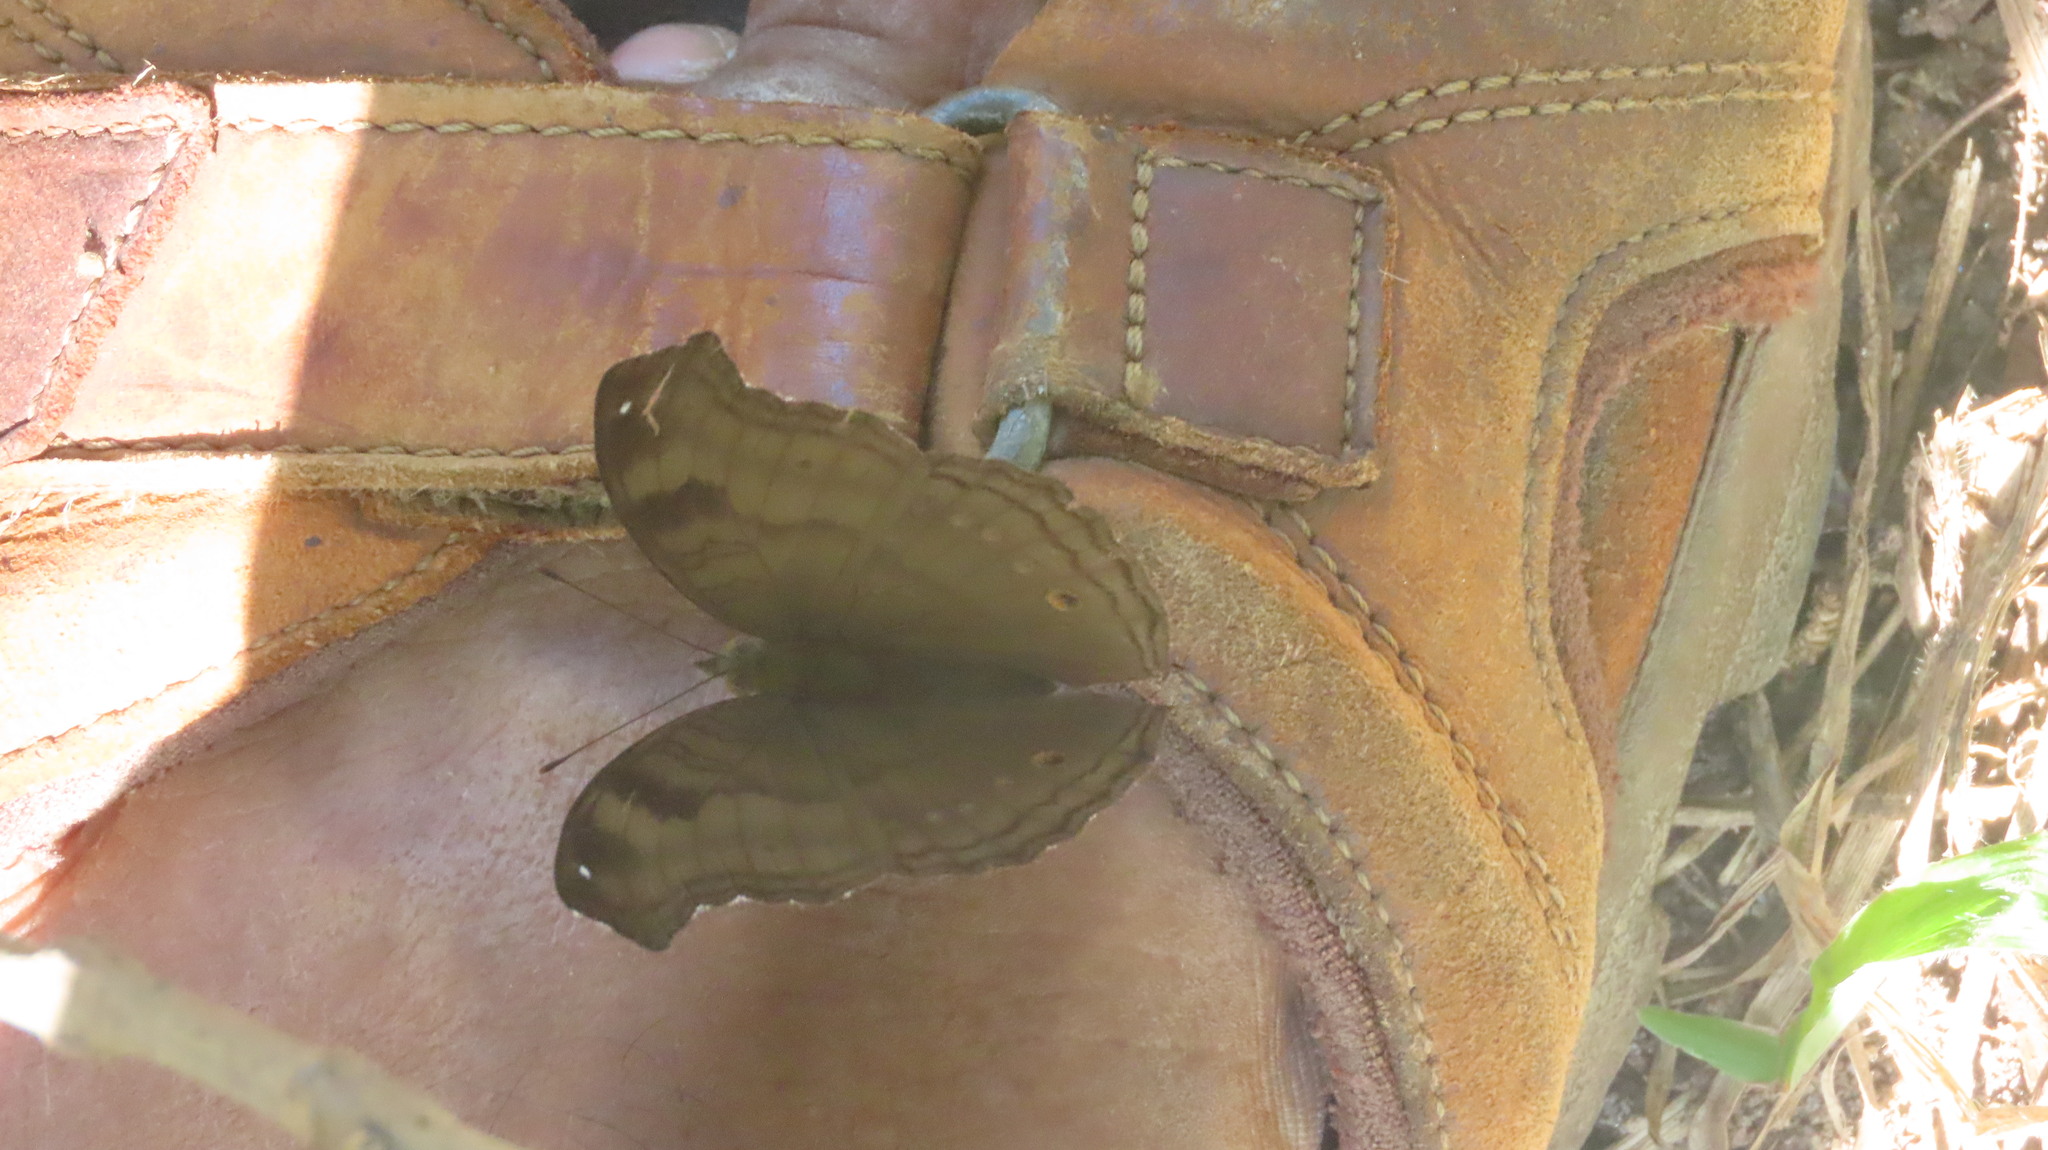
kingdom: Animalia
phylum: Arthropoda
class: Insecta
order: Lepidoptera
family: Nymphalidae
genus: Junonia
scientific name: Junonia iphita
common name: Chocolate pansy
